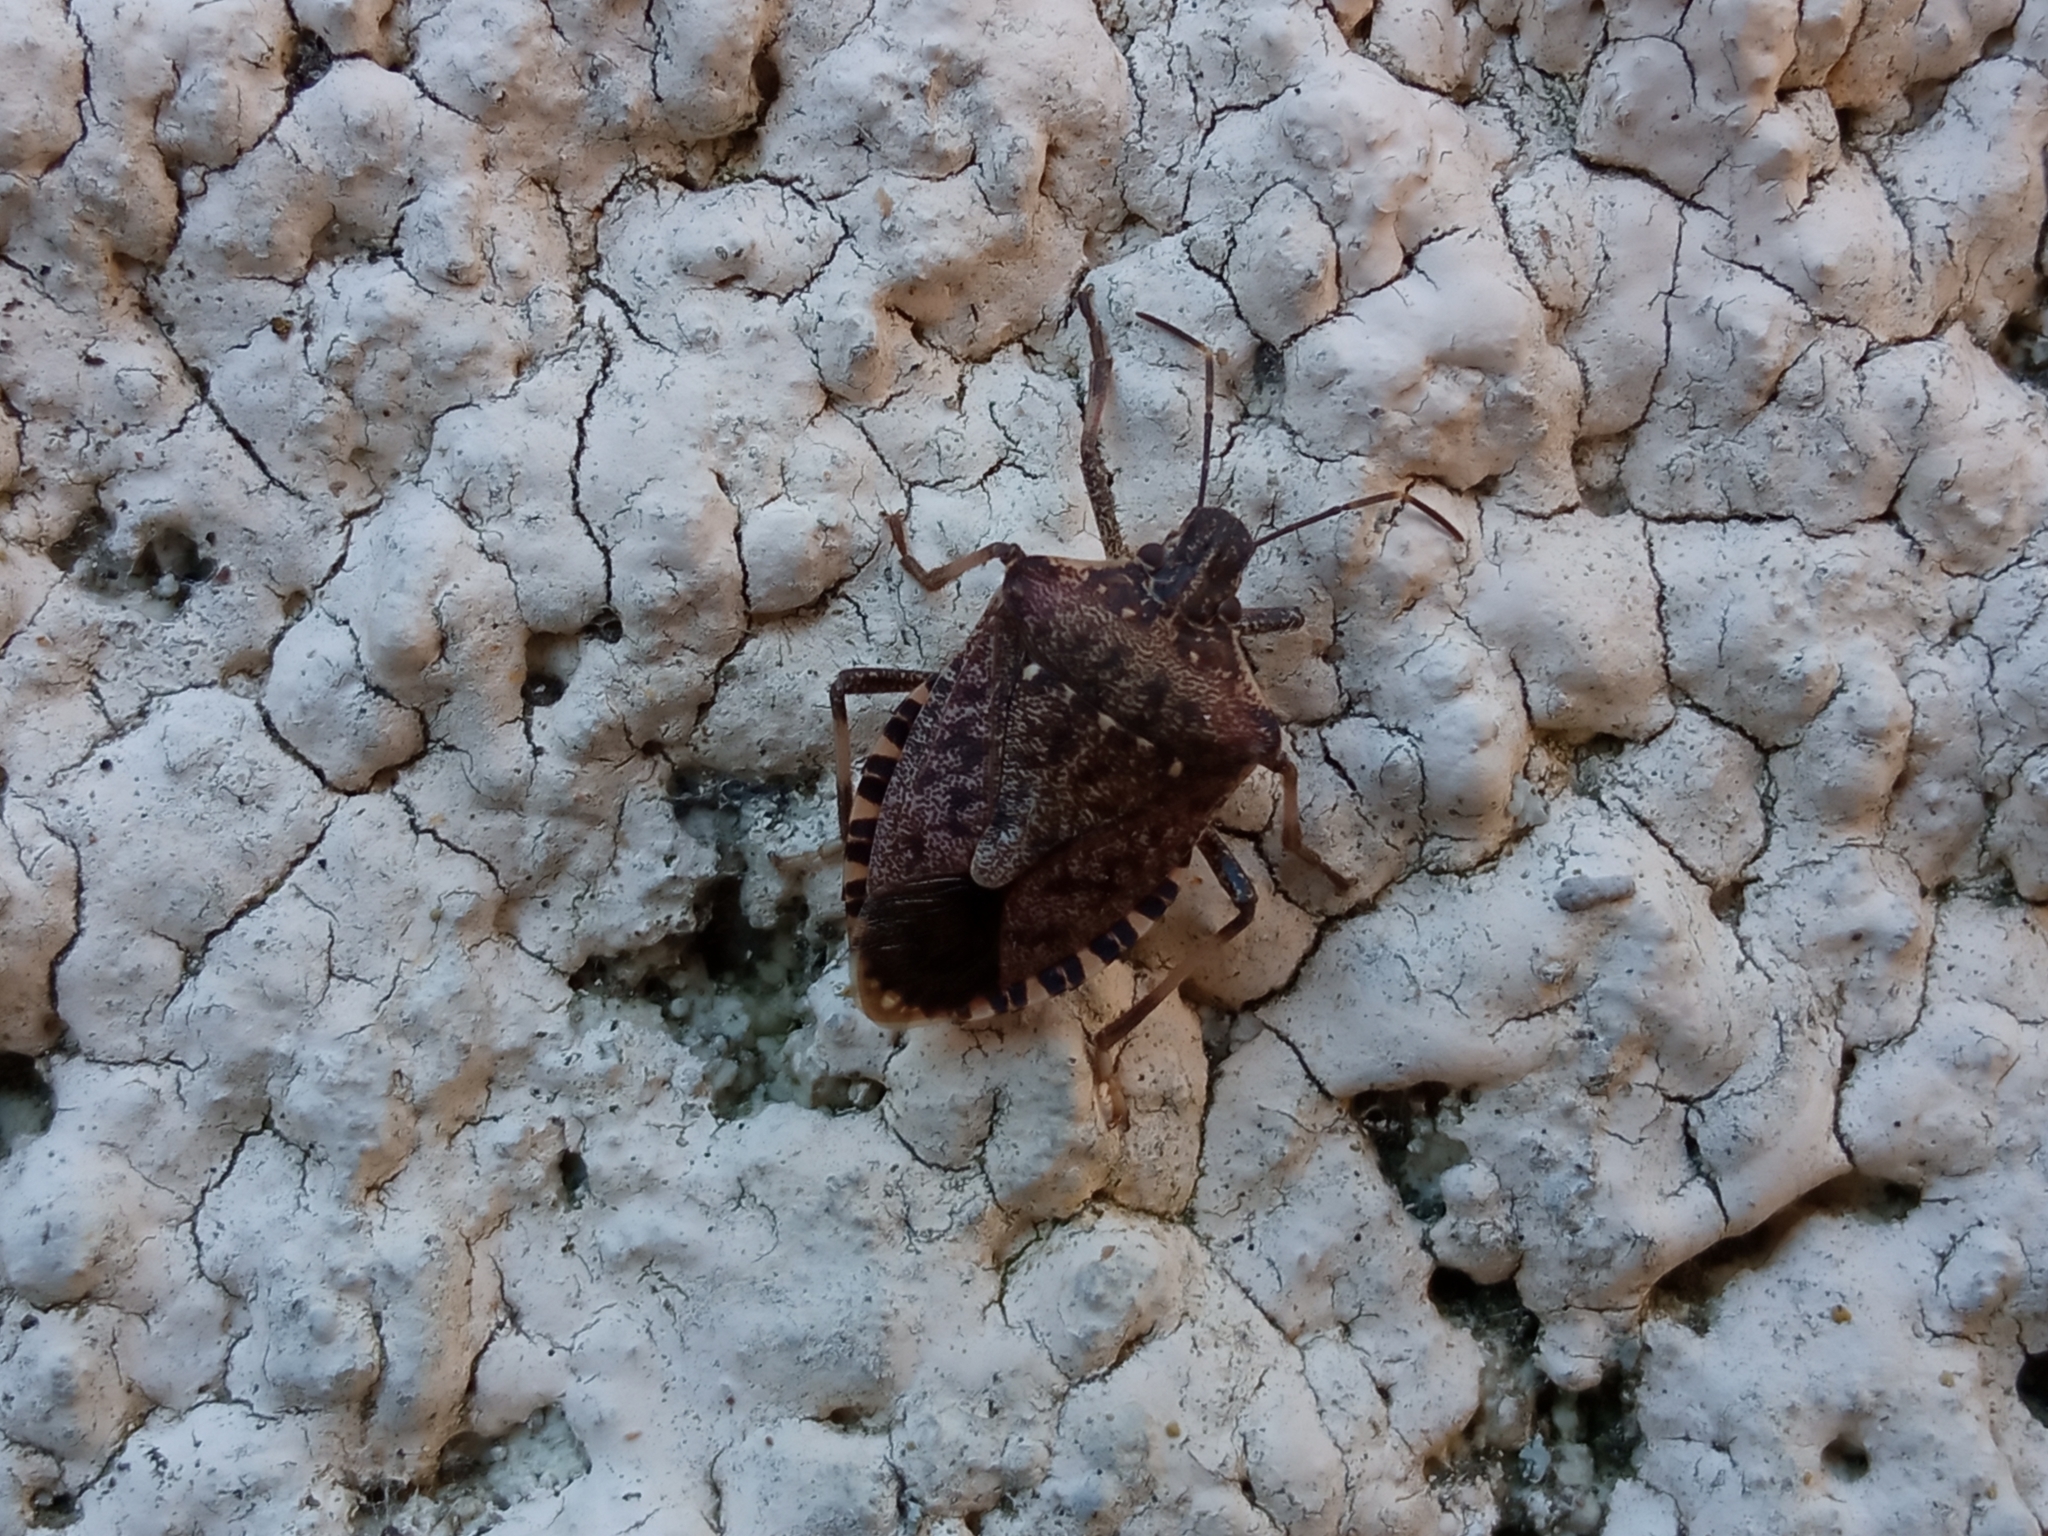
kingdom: Animalia
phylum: Arthropoda
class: Insecta
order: Hemiptera
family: Pentatomidae
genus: Halyomorpha
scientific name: Halyomorpha halys
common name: Brown marmorated stink bug
